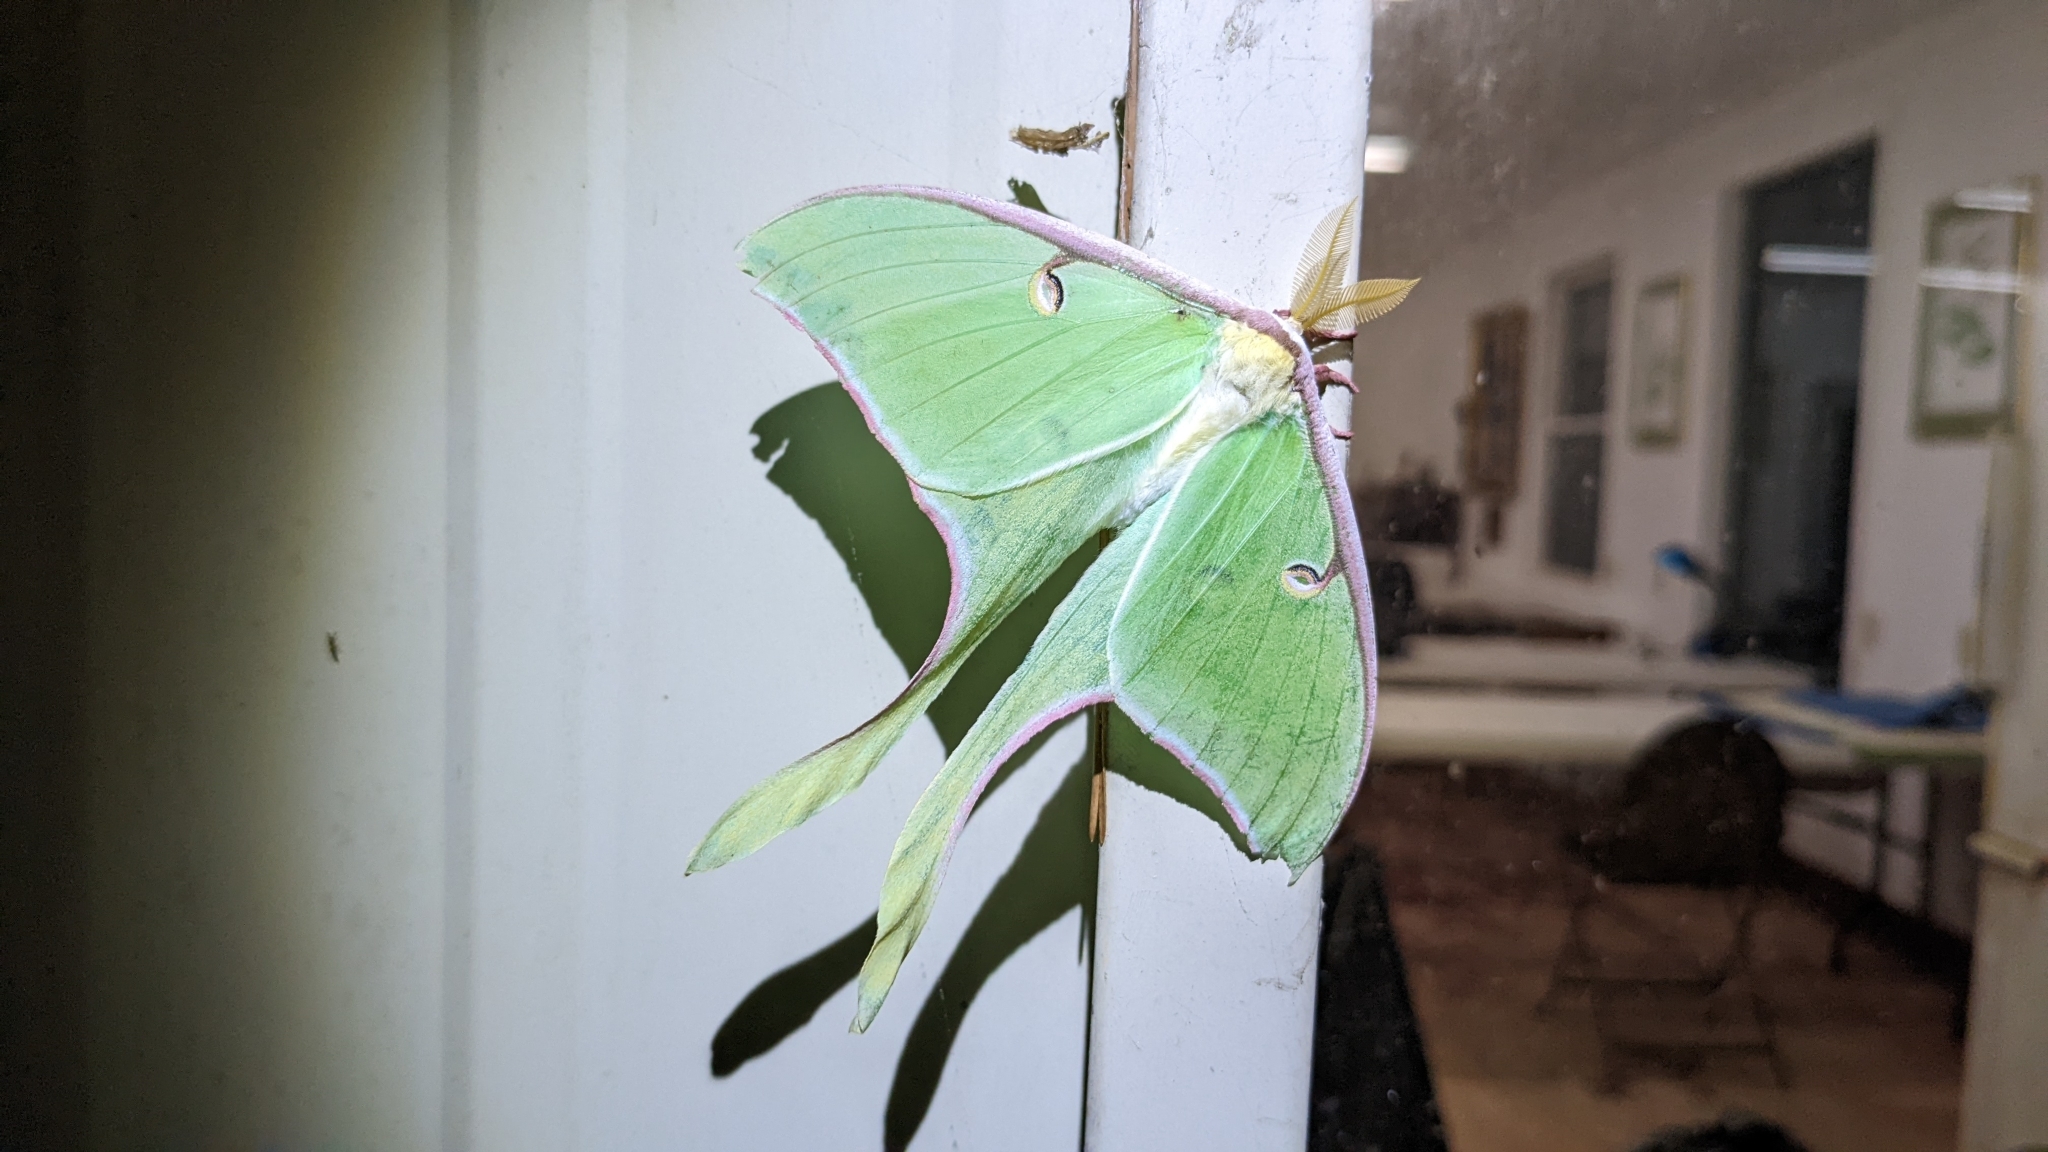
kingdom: Animalia
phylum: Arthropoda
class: Insecta
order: Lepidoptera
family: Saturniidae
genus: Actias
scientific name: Actias luna
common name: Luna moth
